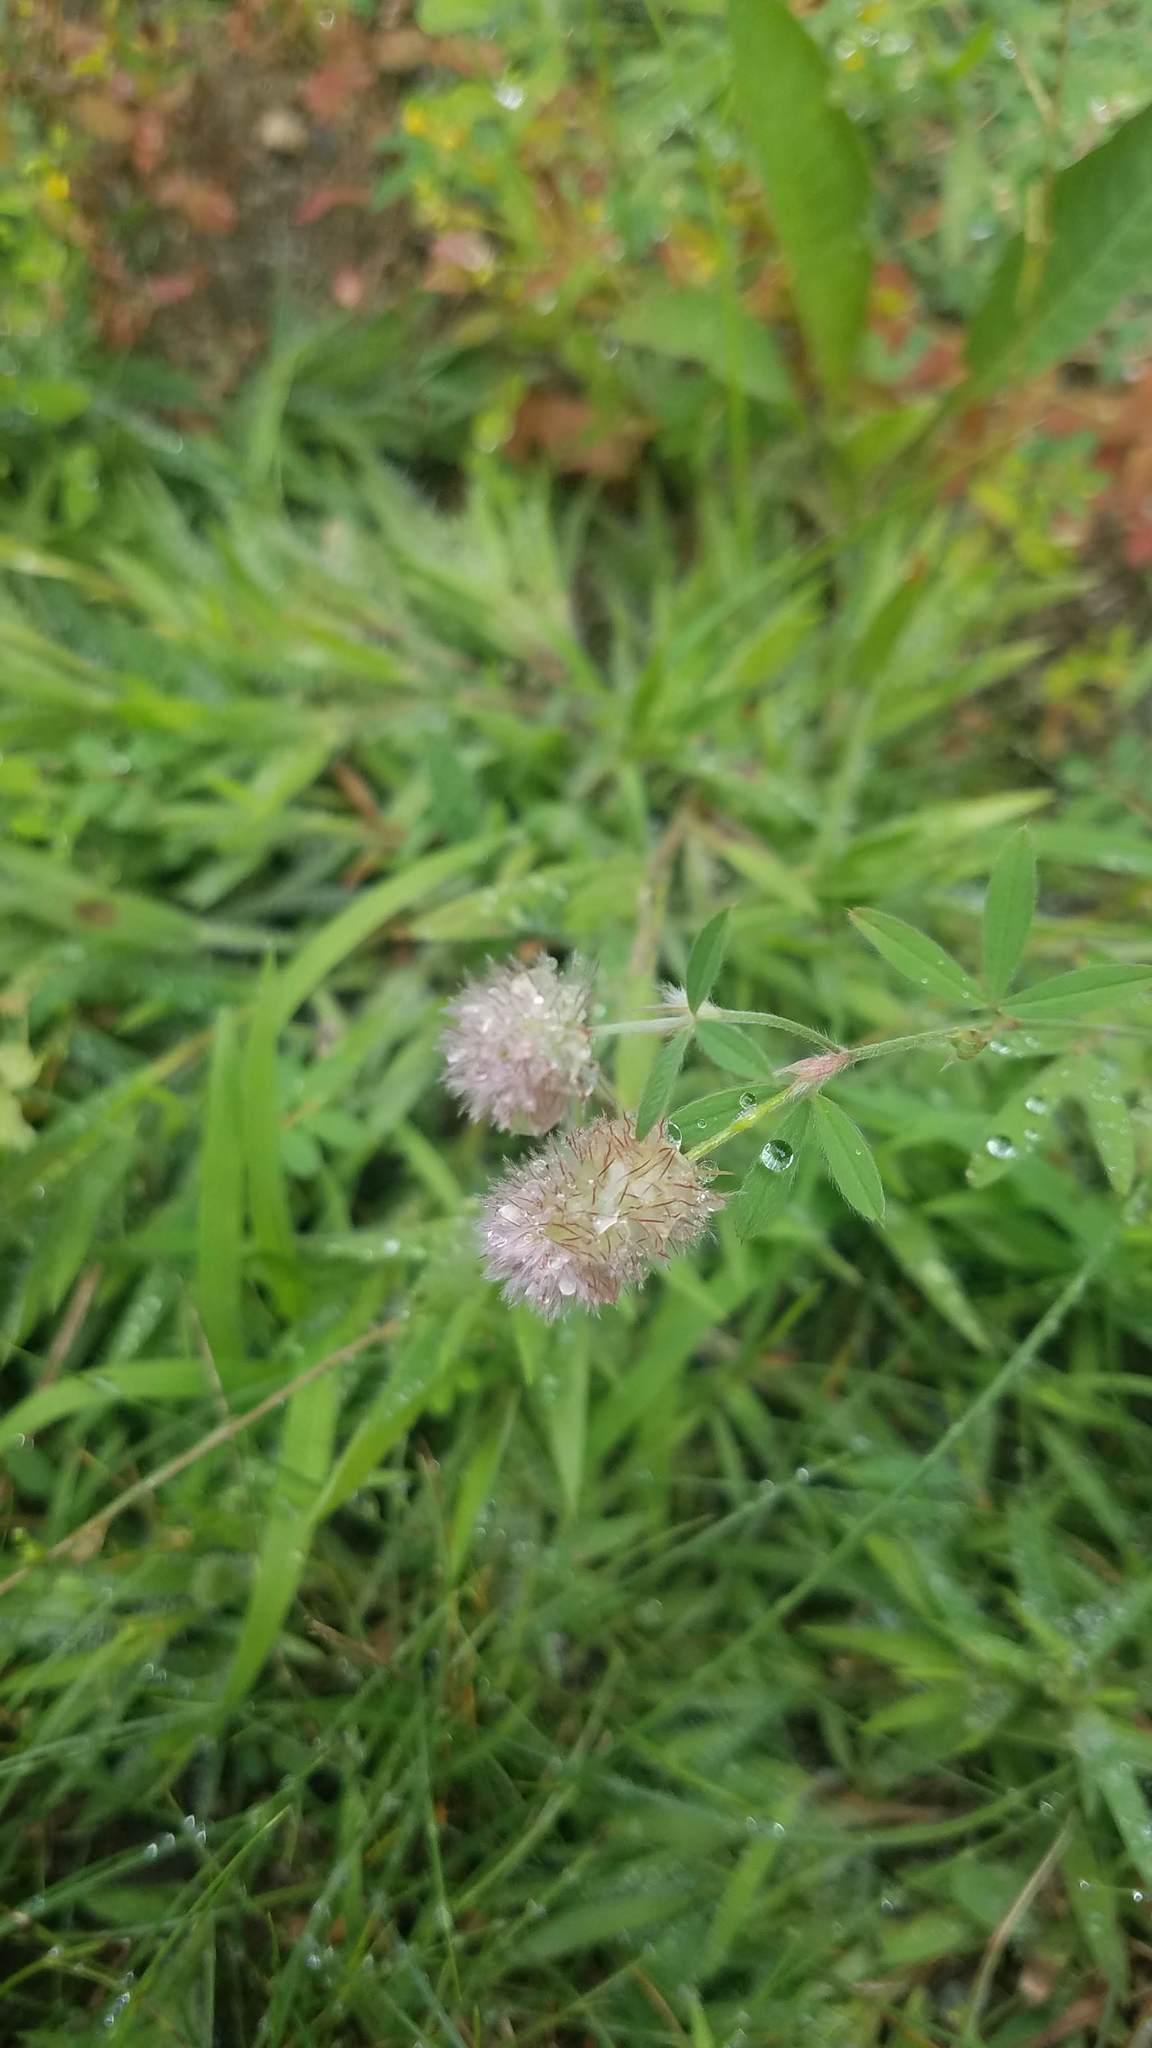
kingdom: Plantae
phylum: Tracheophyta
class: Magnoliopsida
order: Fabales
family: Fabaceae
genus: Trifolium
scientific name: Trifolium arvense
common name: Hare's-foot clover
